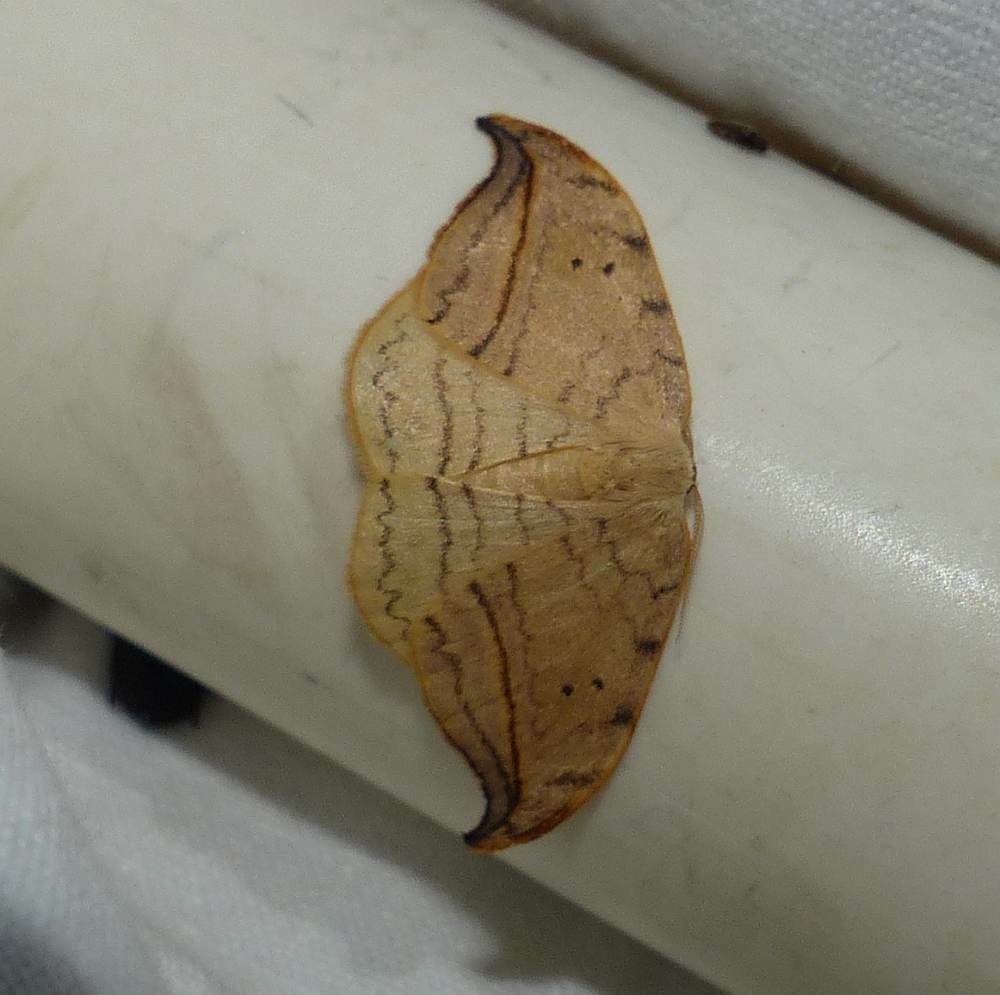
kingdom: Animalia
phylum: Arthropoda
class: Insecta
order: Lepidoptera
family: Drepanidae
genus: Drepana
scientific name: Drepana arcuata
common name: Arched hooktip moth
